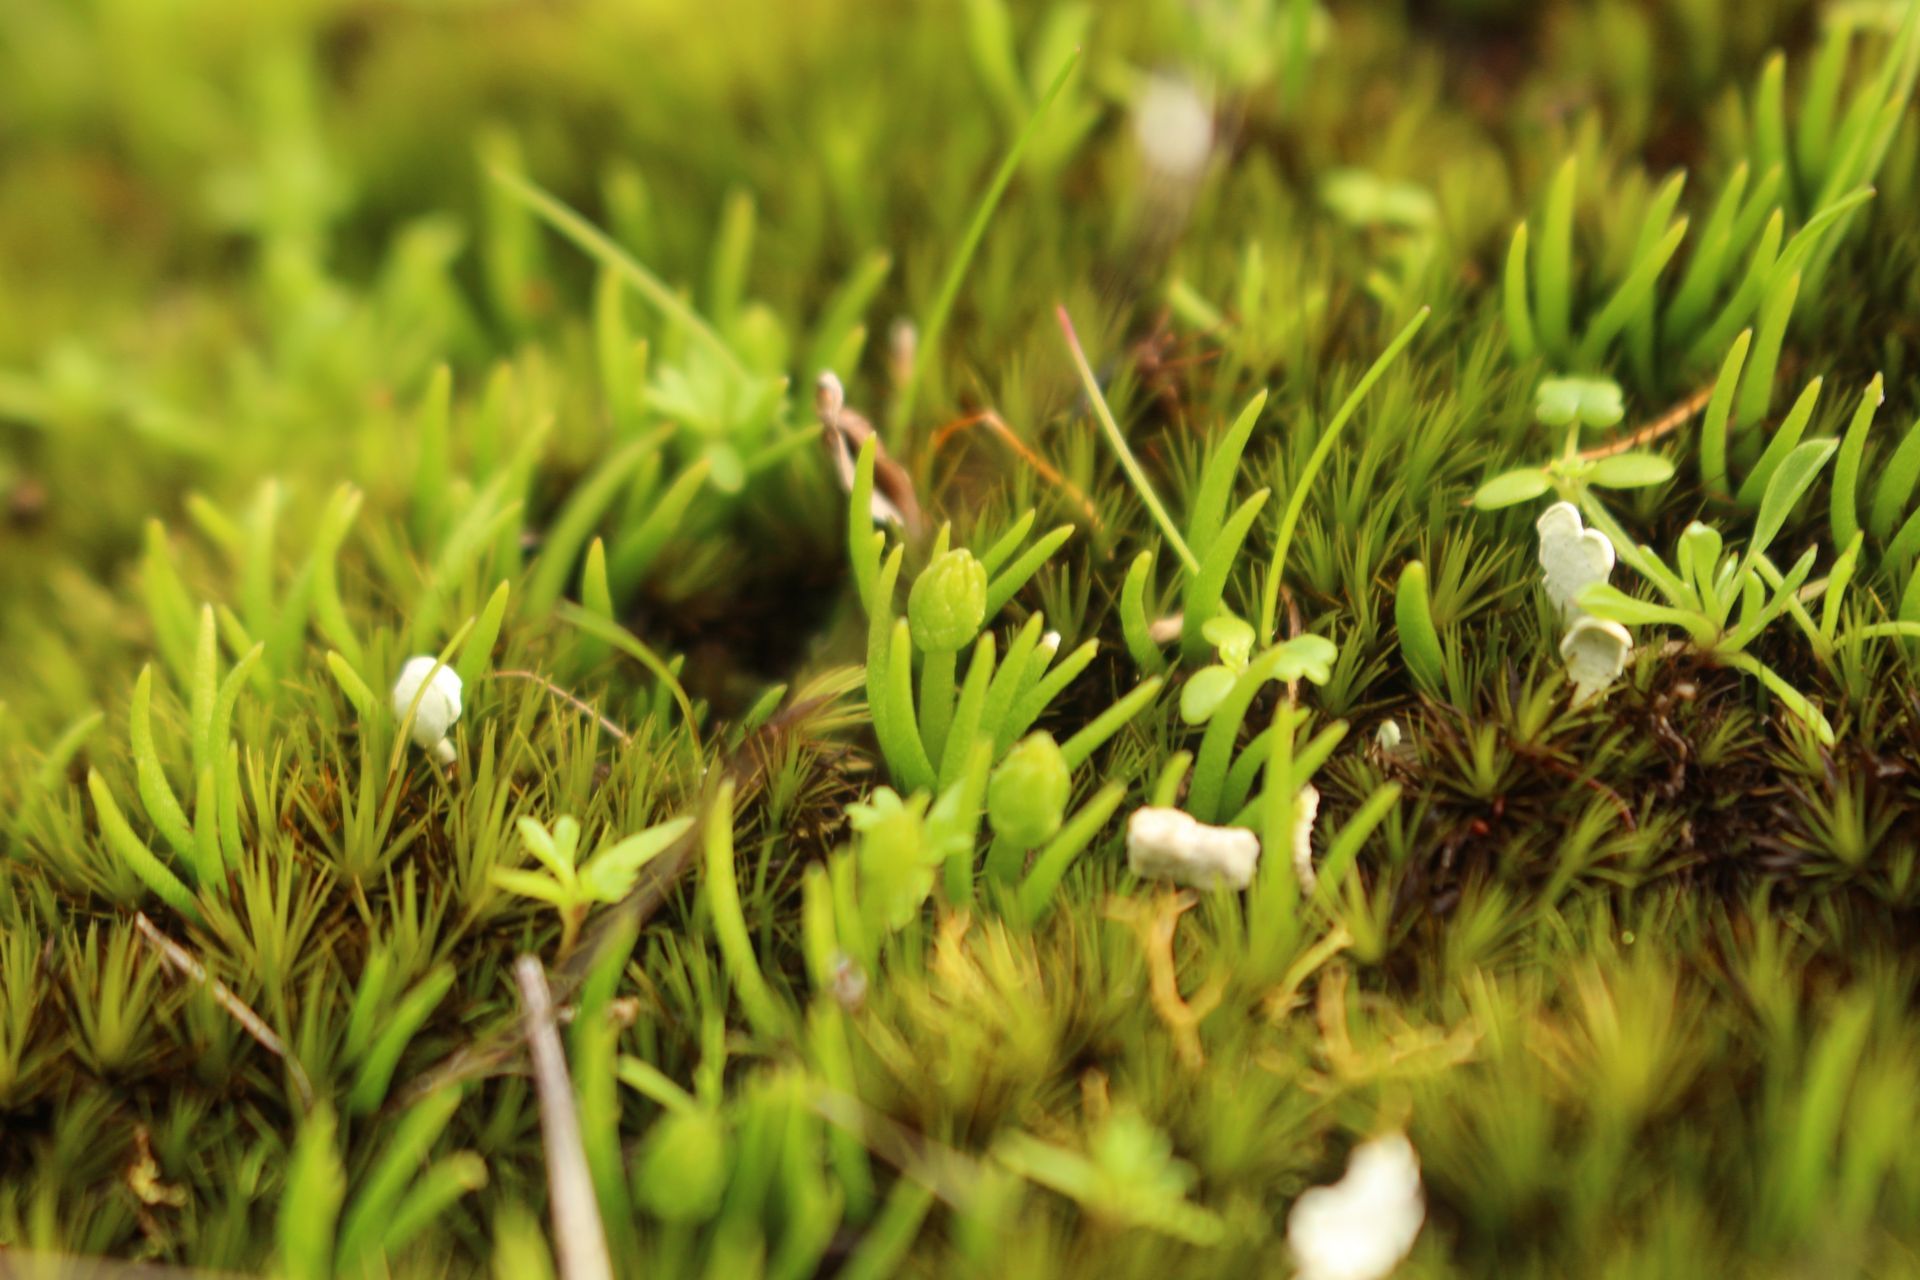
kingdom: Plantae
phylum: Tracheophyta
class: Lycopodiopsida
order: Lycopodiales
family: Lycopodiaceae
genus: Phylloglossum
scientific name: Phylloglossum drummondii
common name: Pigmy-club-moss
